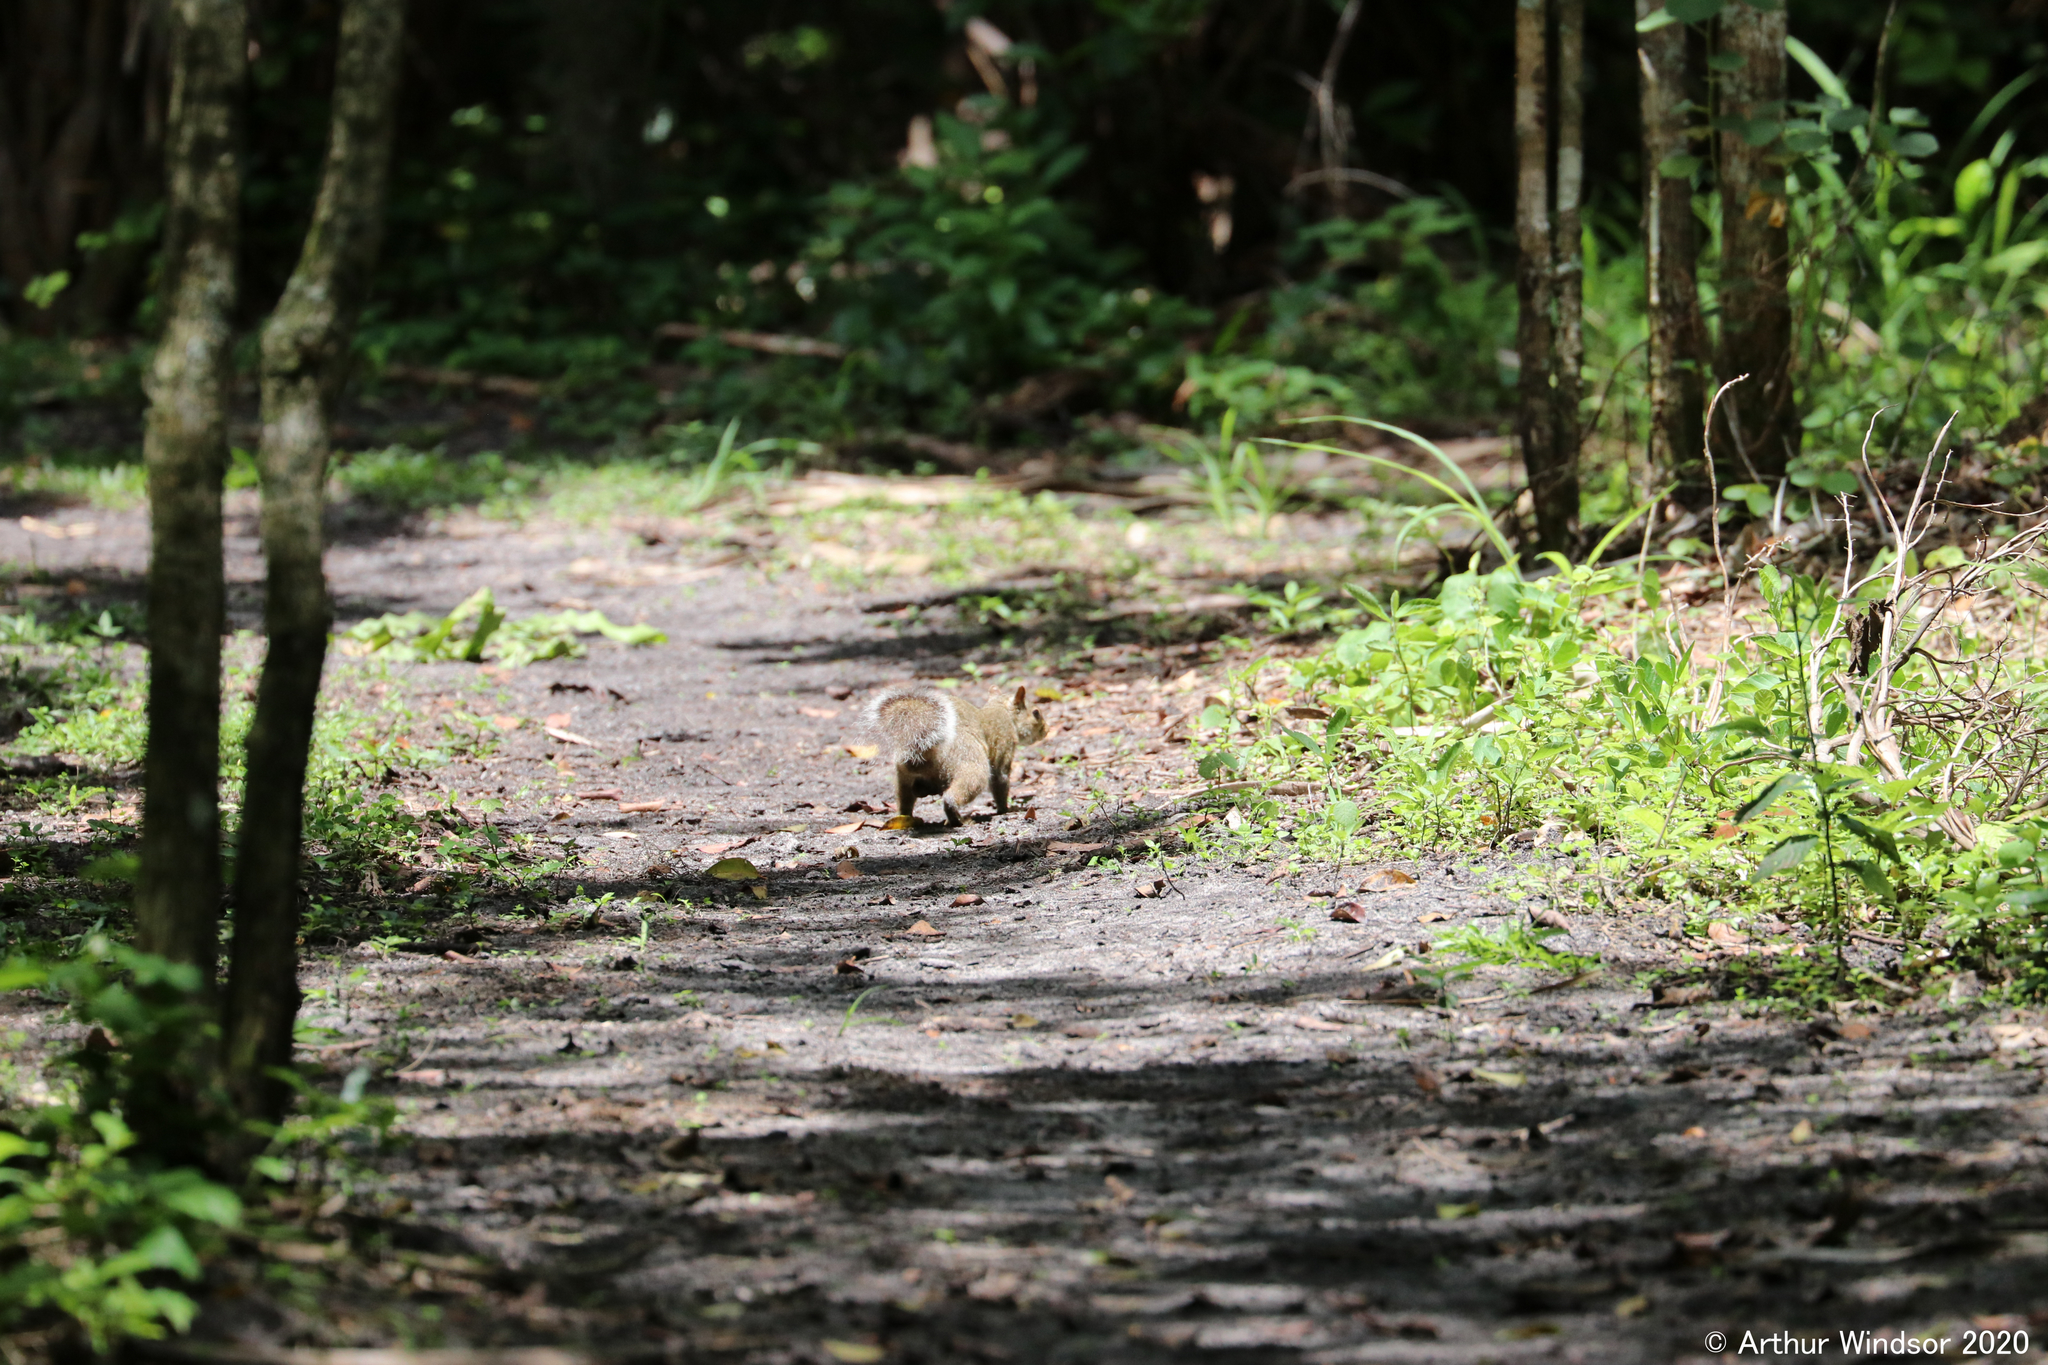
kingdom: Animalia
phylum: Chordata
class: Mammalia
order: Rodentia
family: Sciuridae
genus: Sciurus
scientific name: Sciurus carolinensis
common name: Eastern gray squirrel
